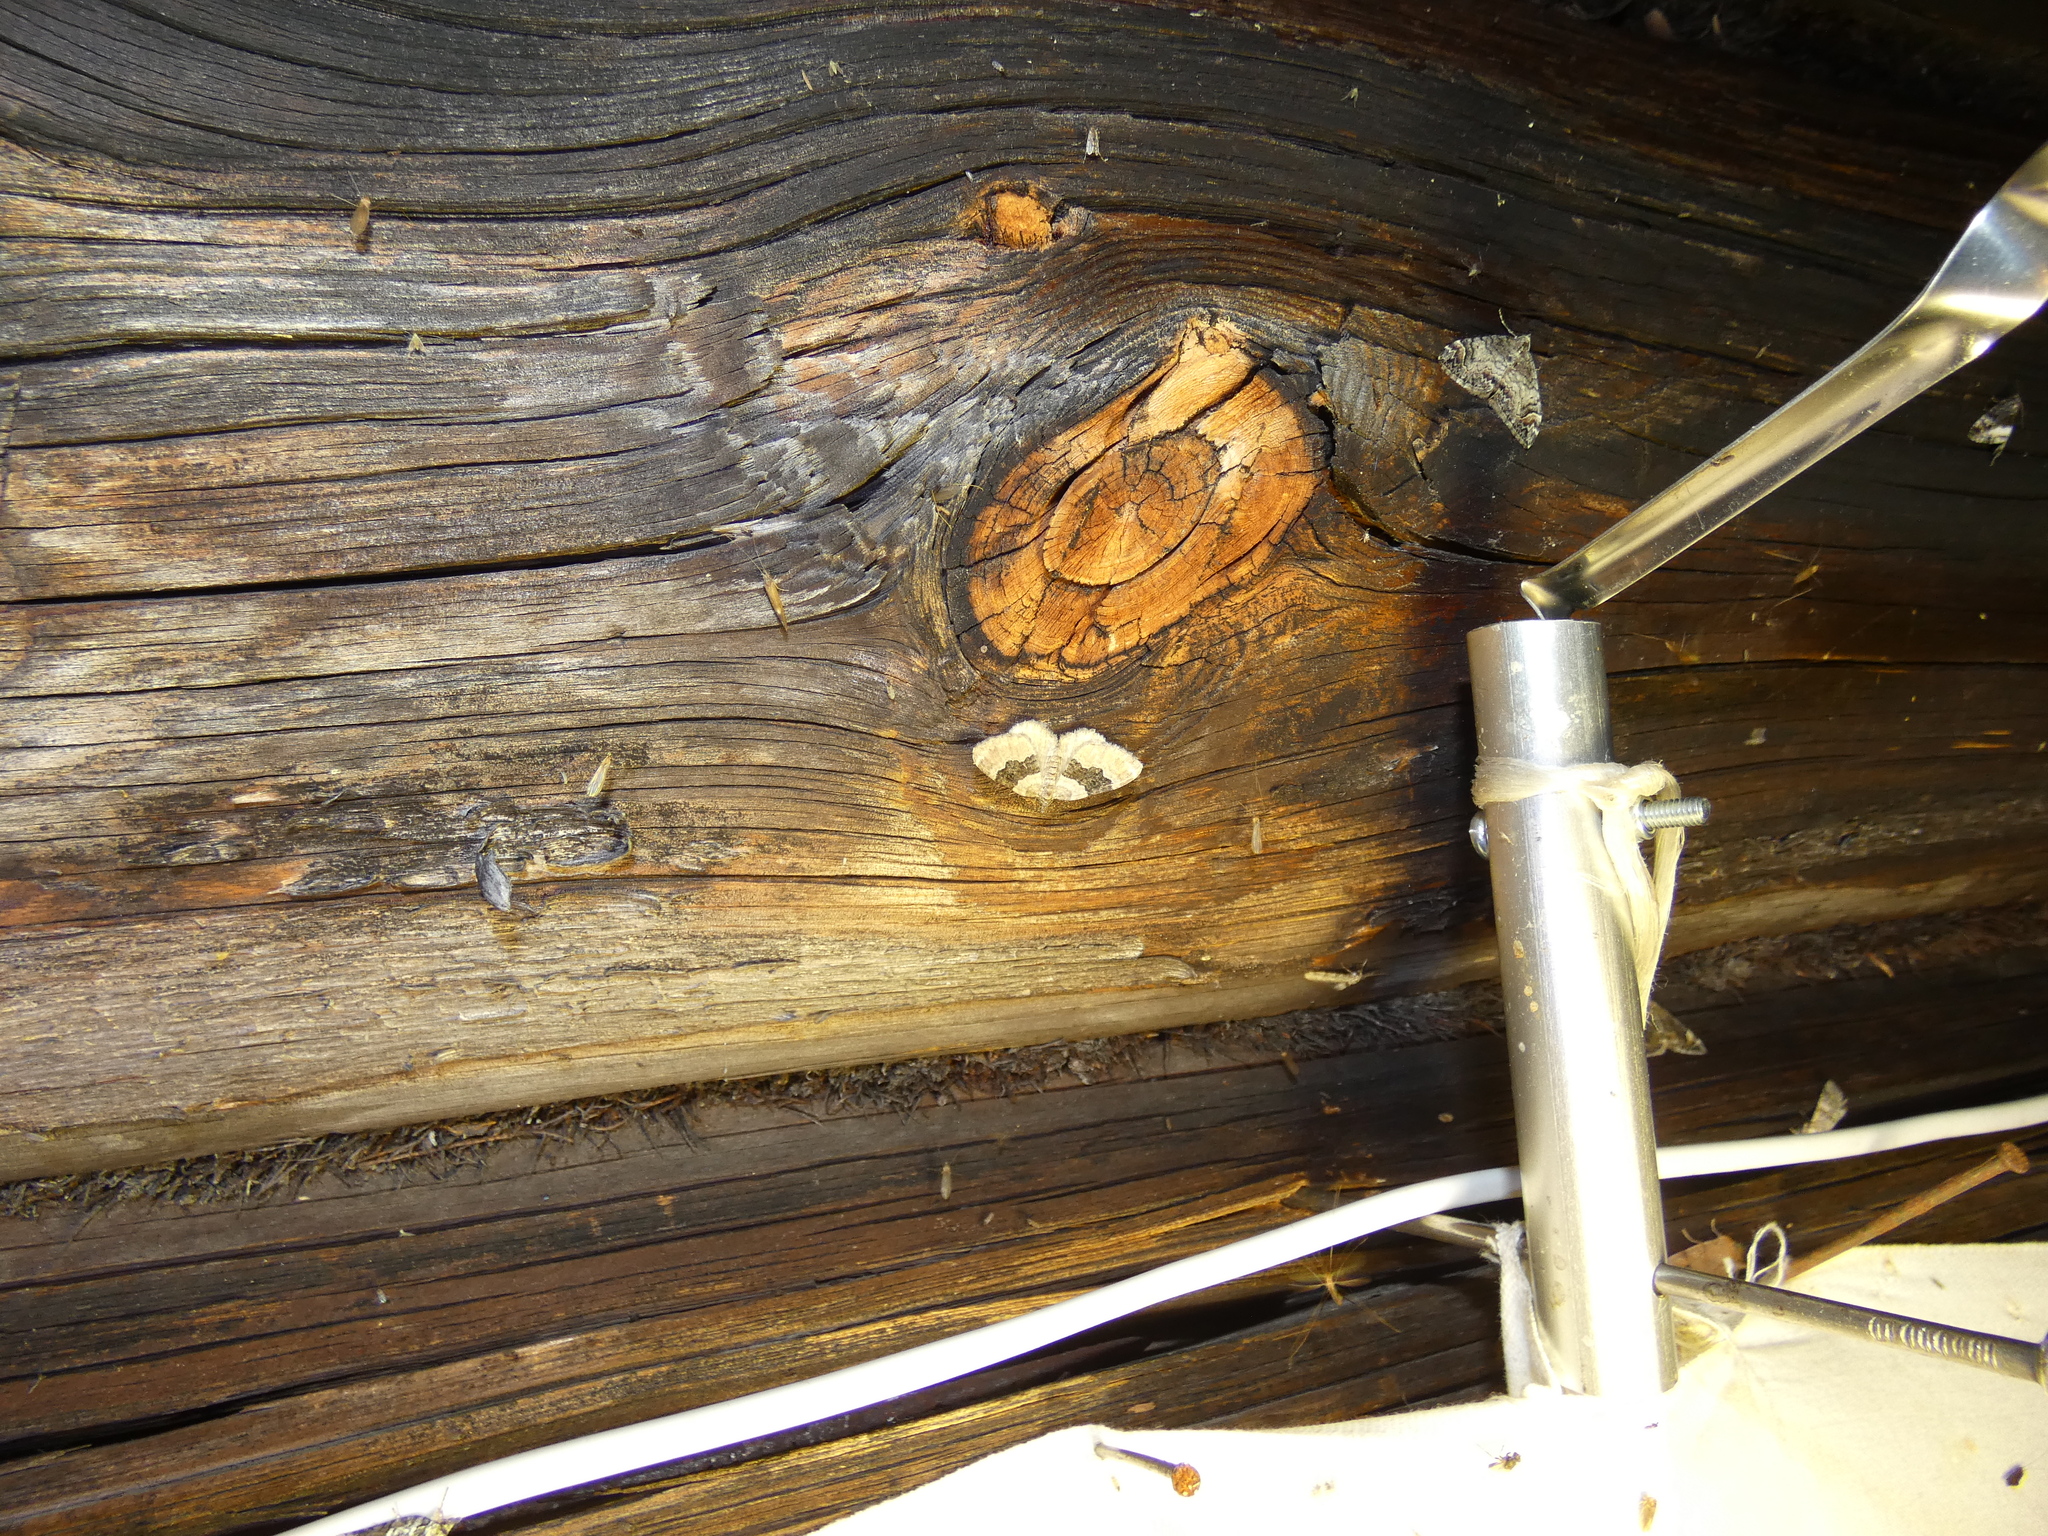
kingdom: Animalia
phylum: Arthropoda
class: Insecta
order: Lepidoptera
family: Geometridae
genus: Xanthorhoe
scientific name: Xanthorhoe quadrifasiata
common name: Large twin-spot carpet
